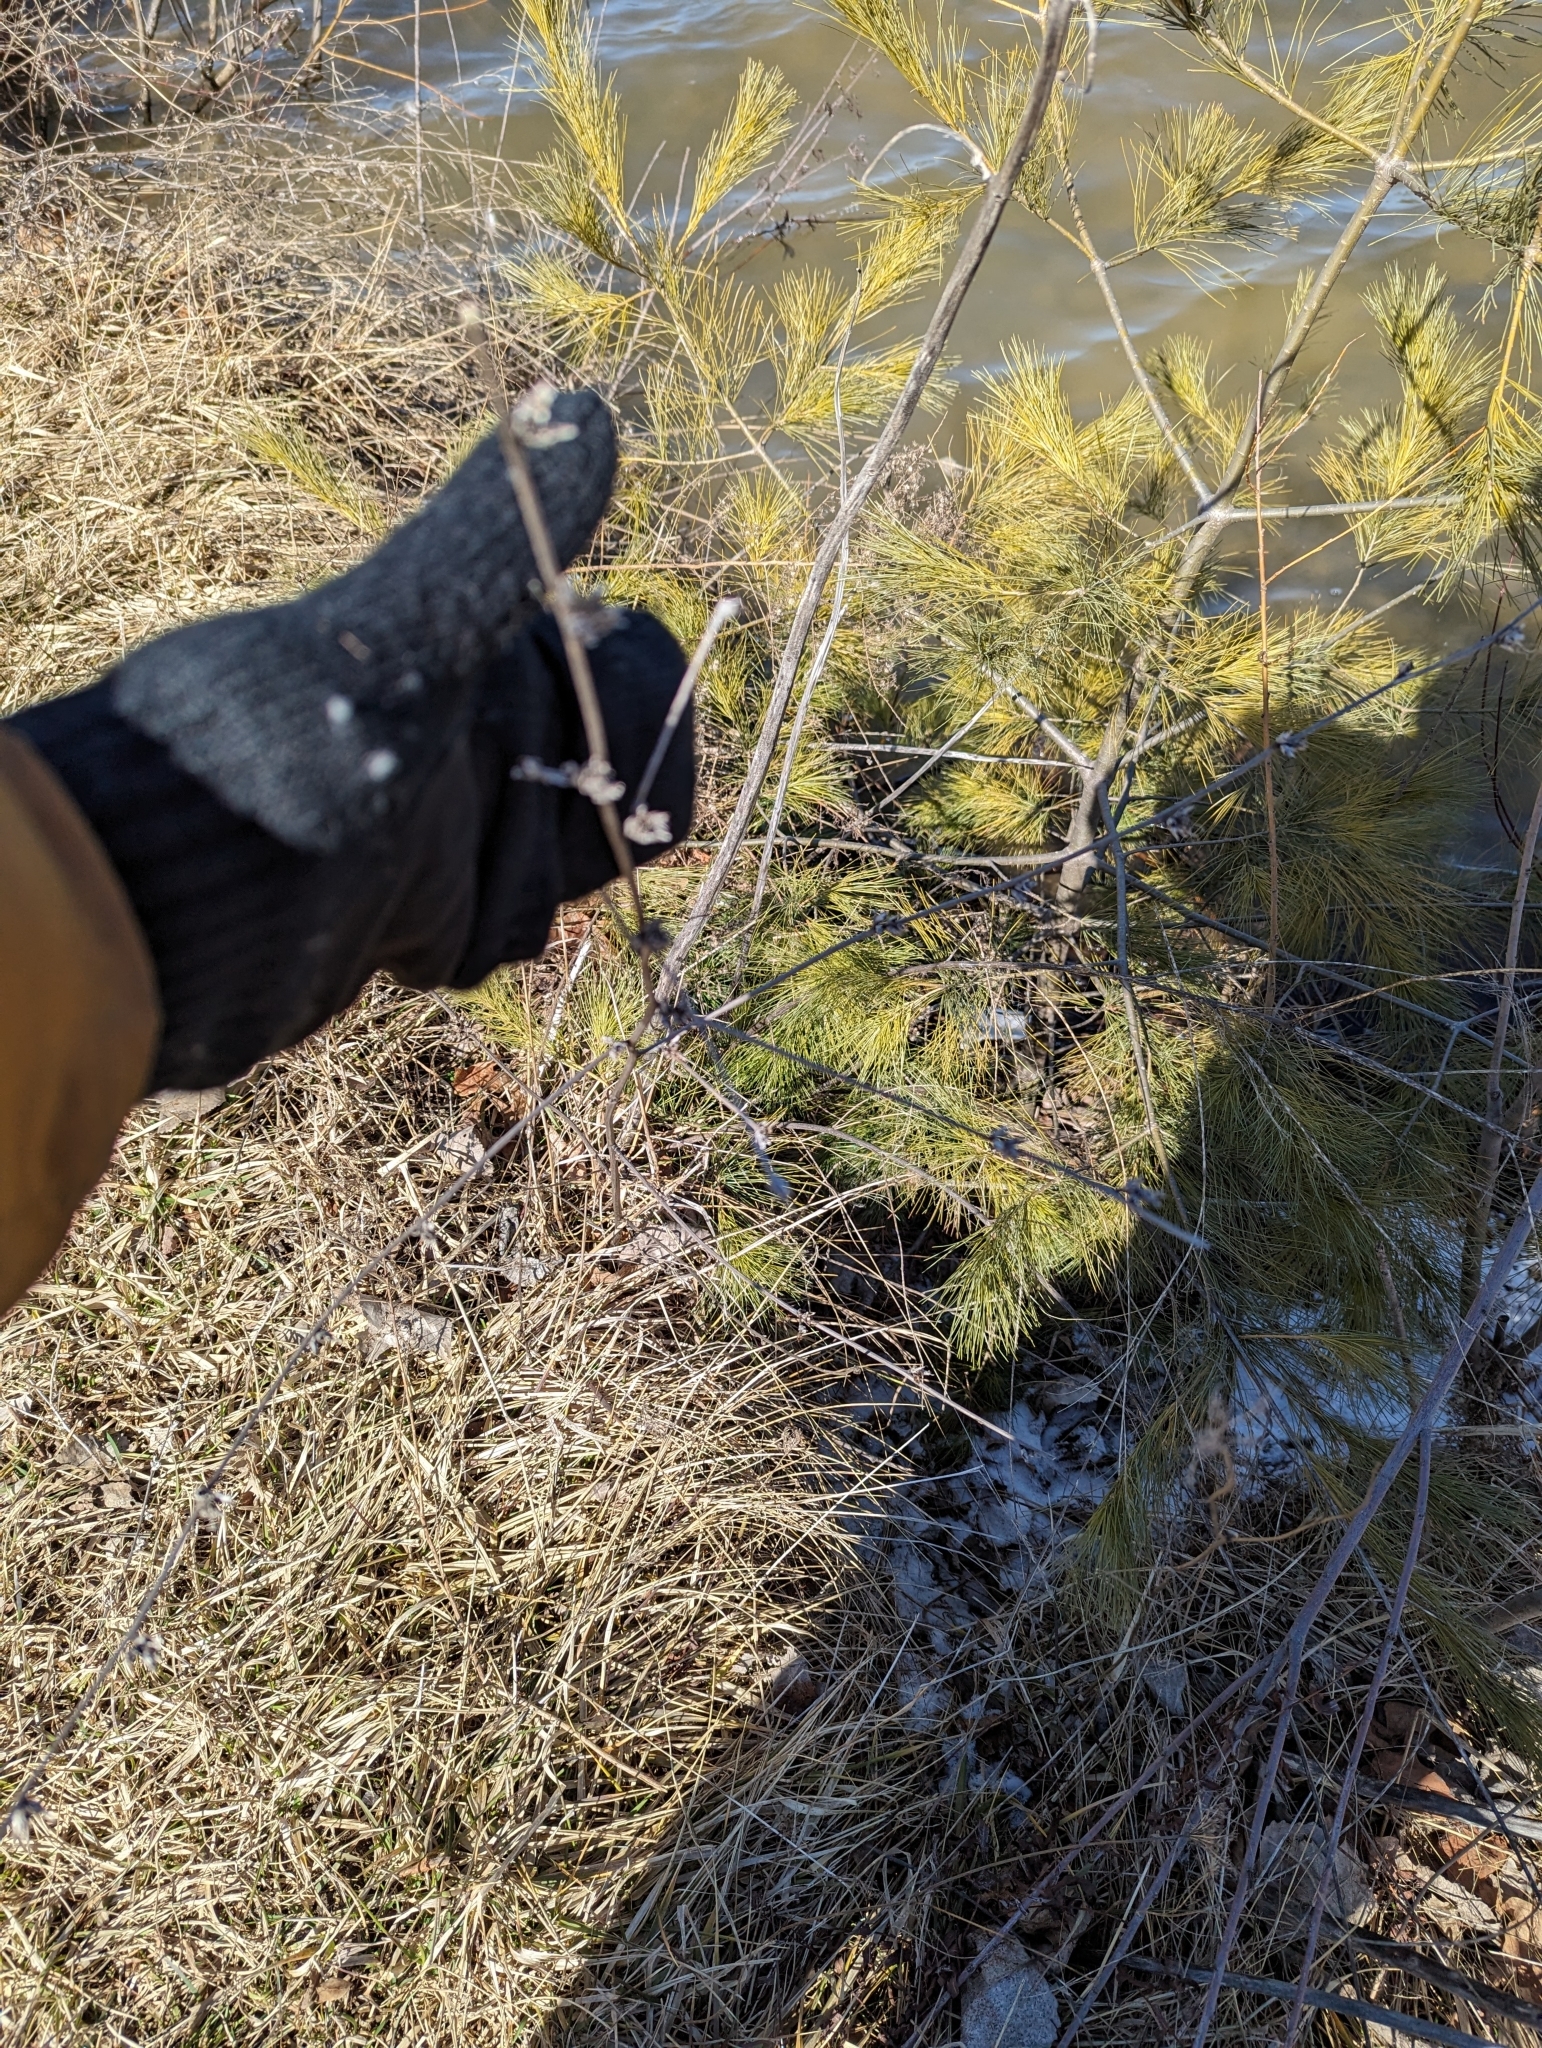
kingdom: Plantae
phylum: Tracheophyta
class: Magnoliopsida
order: Asterales
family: Asteraceae
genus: Cichorium
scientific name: Cichorium intybus
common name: Chicory
